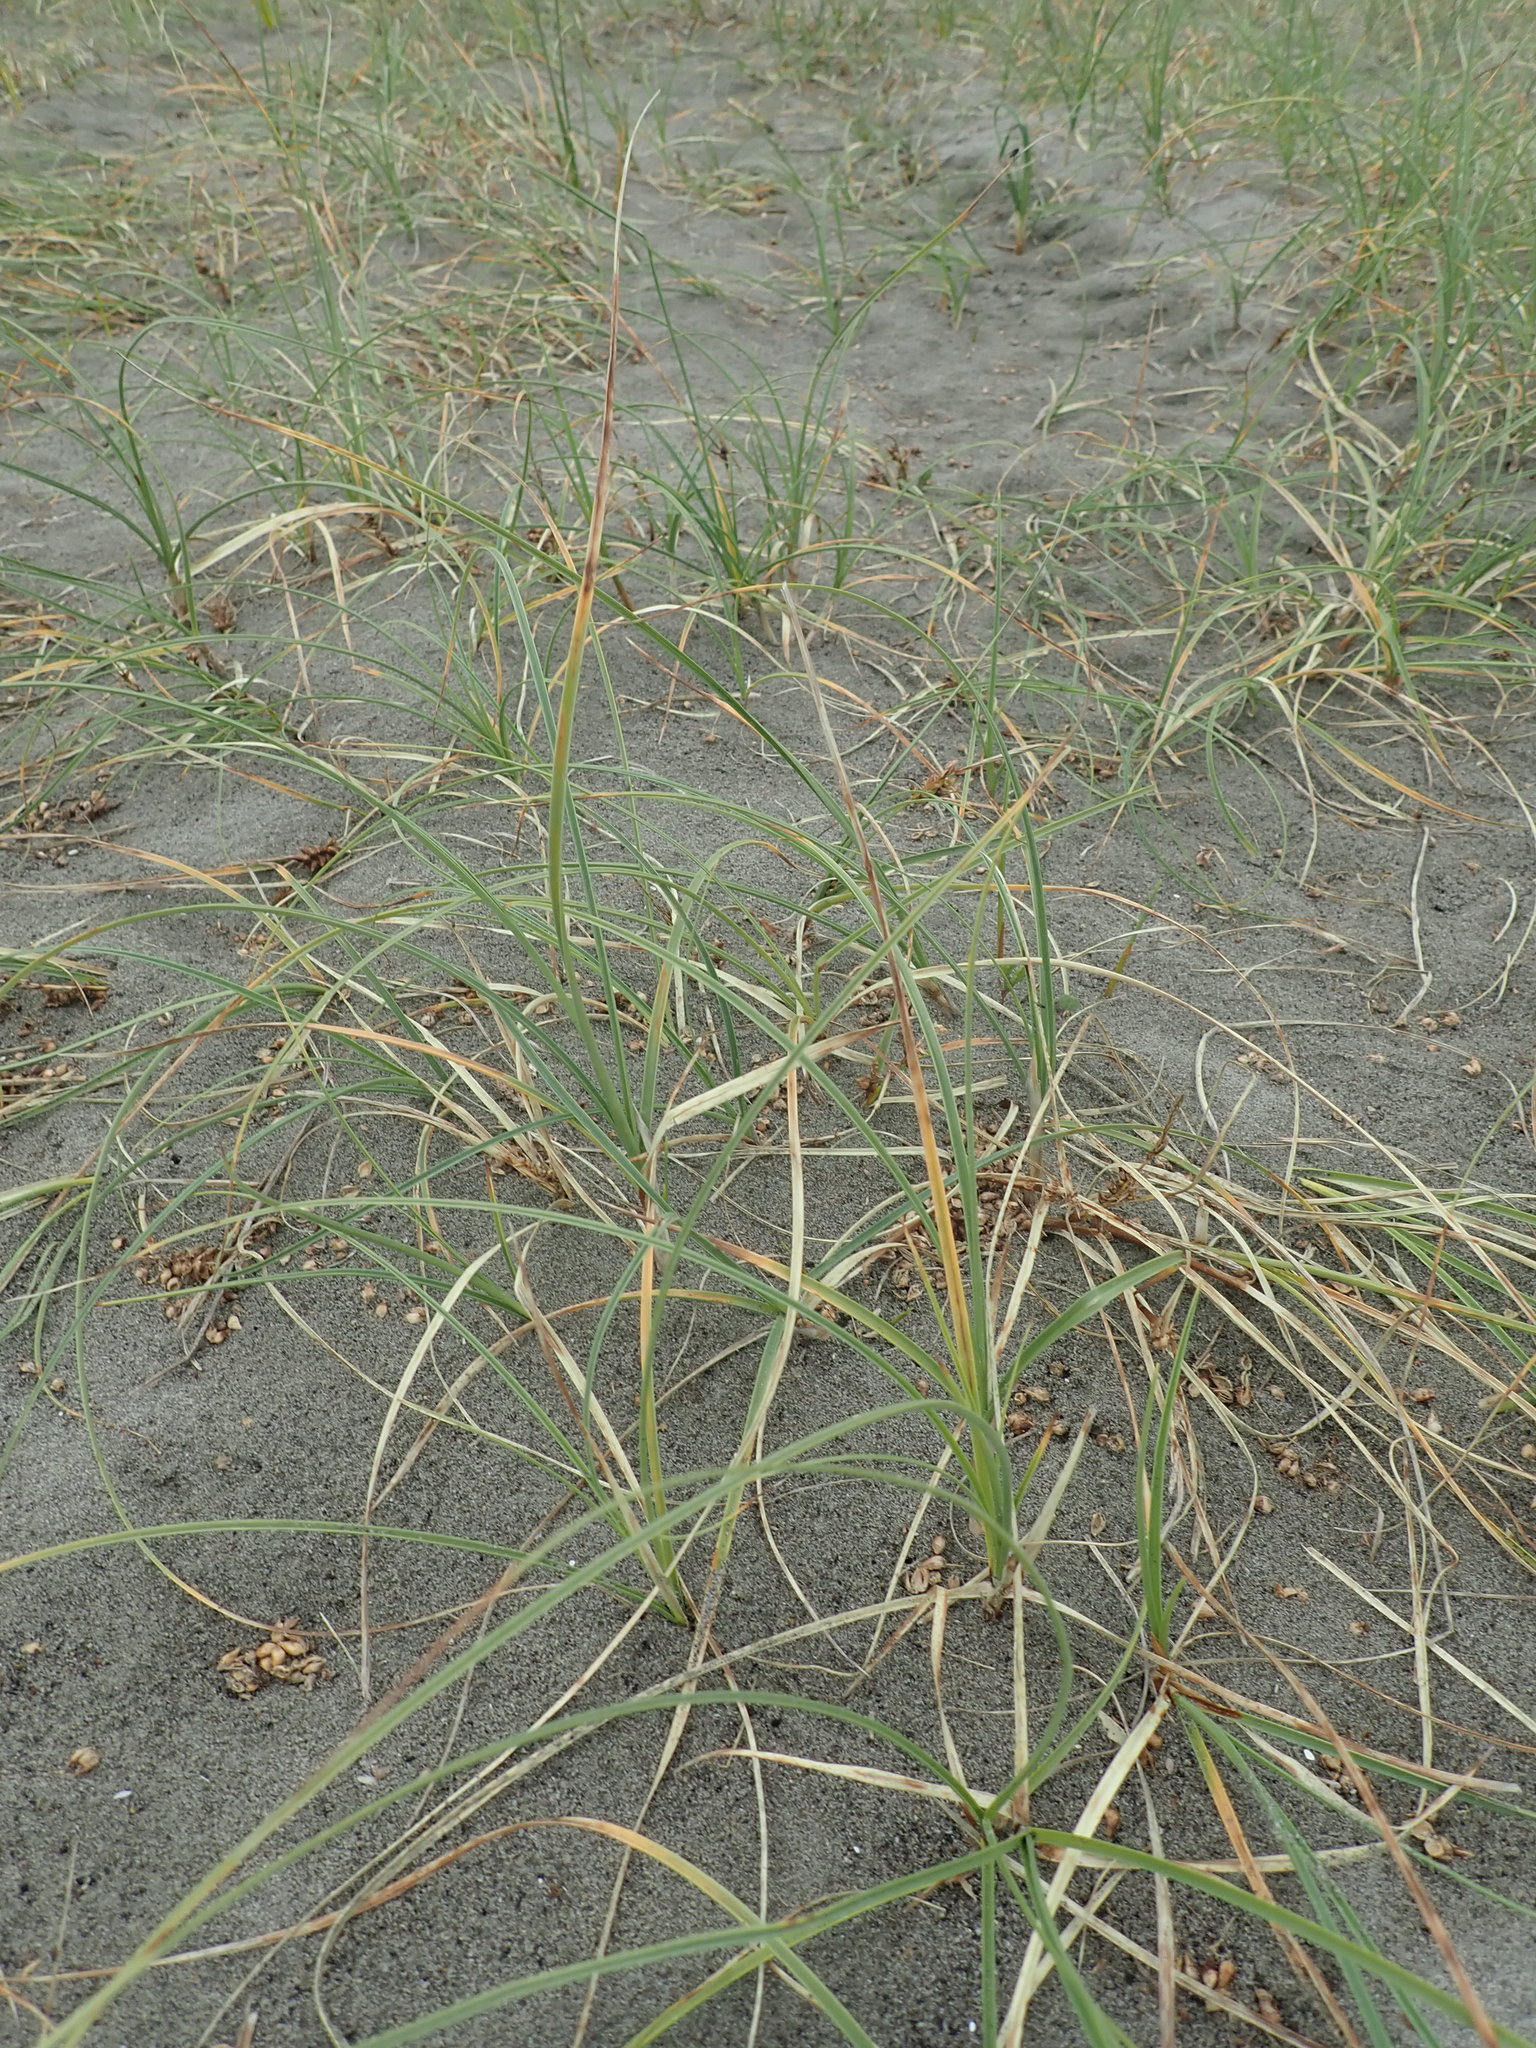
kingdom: Plantae
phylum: Tracheophyta
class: Liliopsida
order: Poales
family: Cyperaceae
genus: Carex
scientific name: Carex pumila
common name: Dwarf sedge
